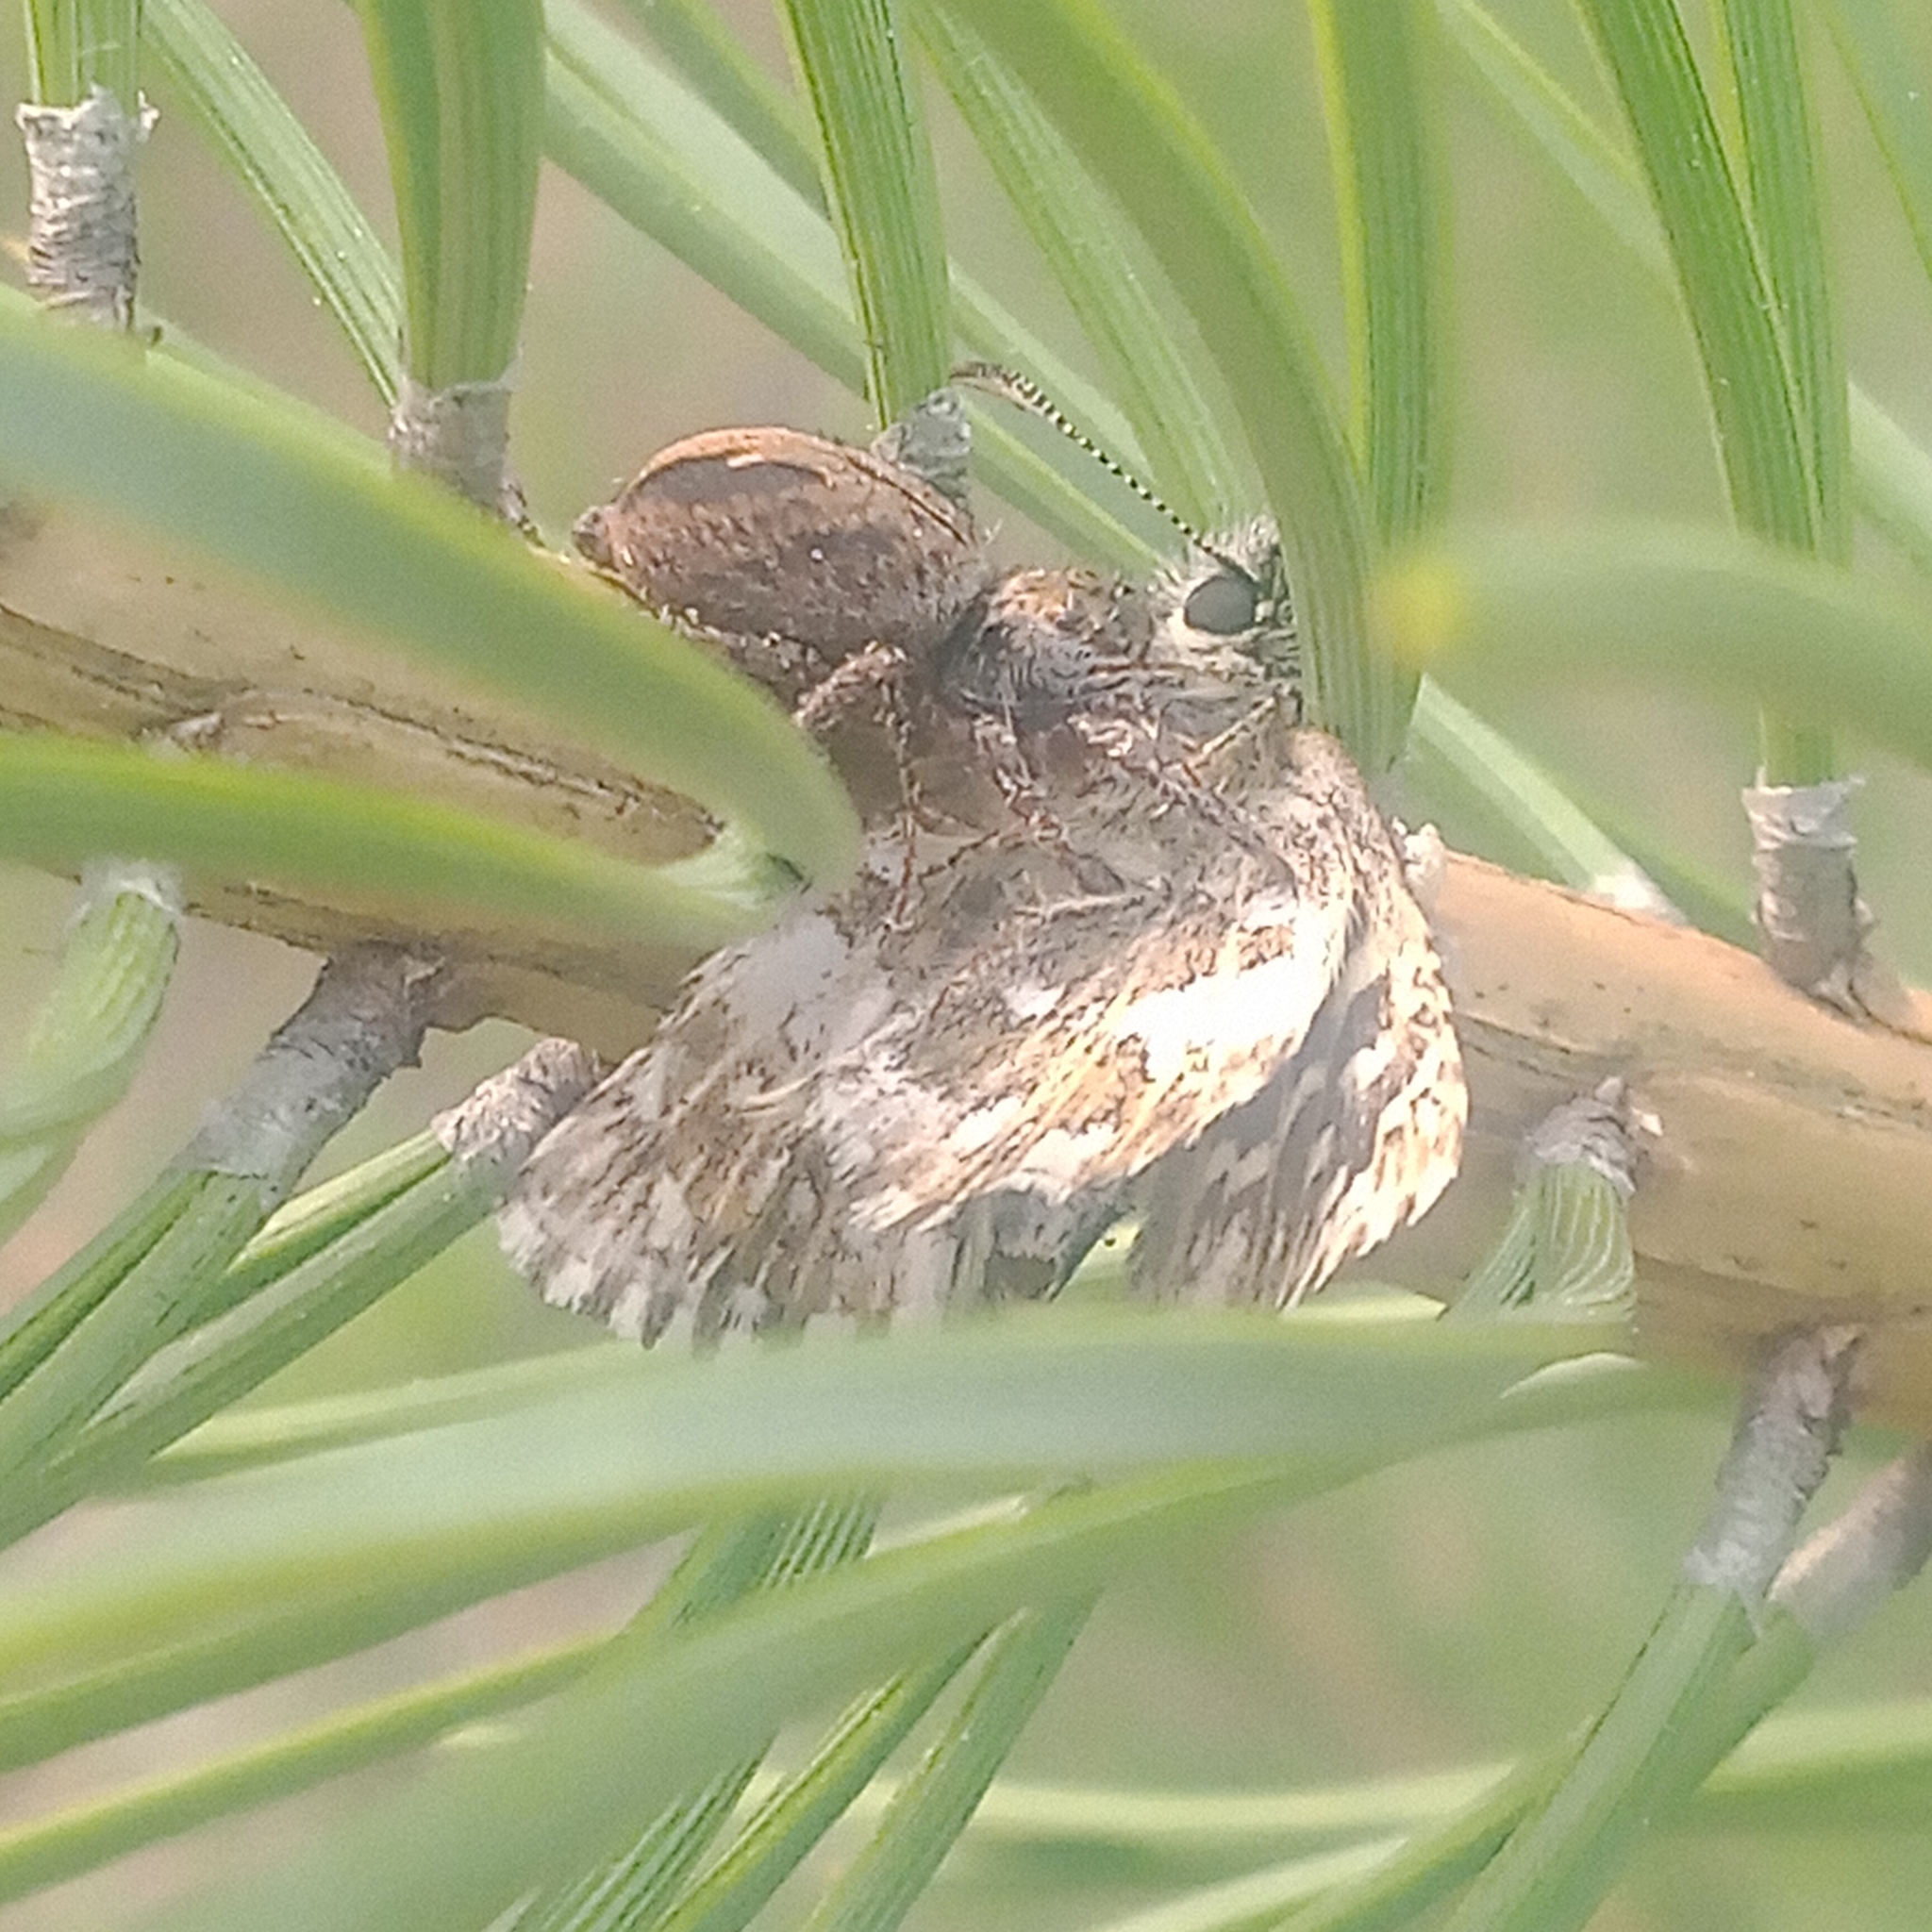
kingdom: Animalia
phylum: Arthropoda
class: Insecta
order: Lepidoptera
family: Hesperiidae
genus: Pyrgus
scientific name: Pyrgus malvae
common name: Grizzled skipper
